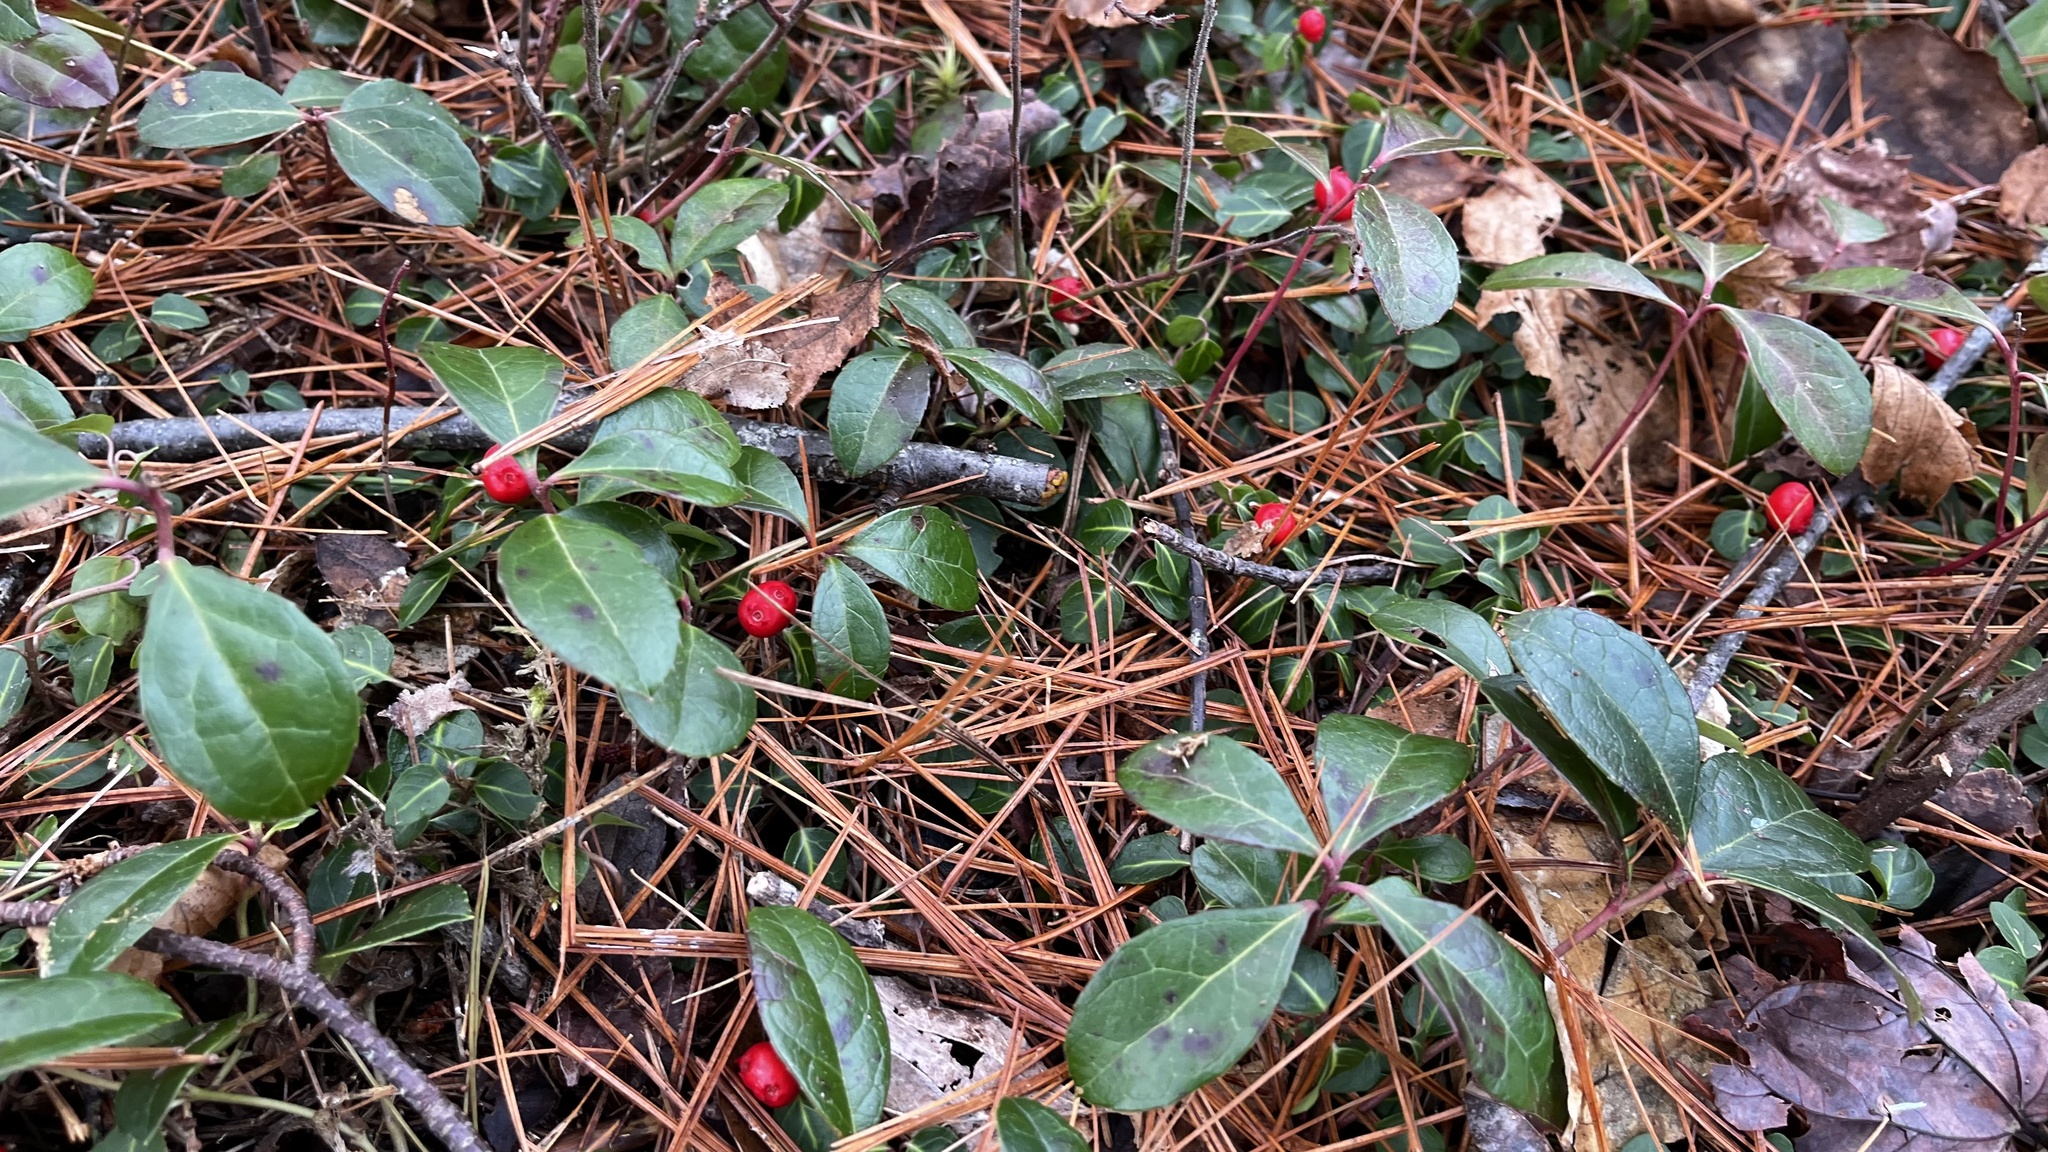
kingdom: Plantae
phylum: Tracheophyta
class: Magnoliopsida
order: Ericales
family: Ericaceae
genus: Gaultheria
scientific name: Gaultheria procumbens
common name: Checkerberry
